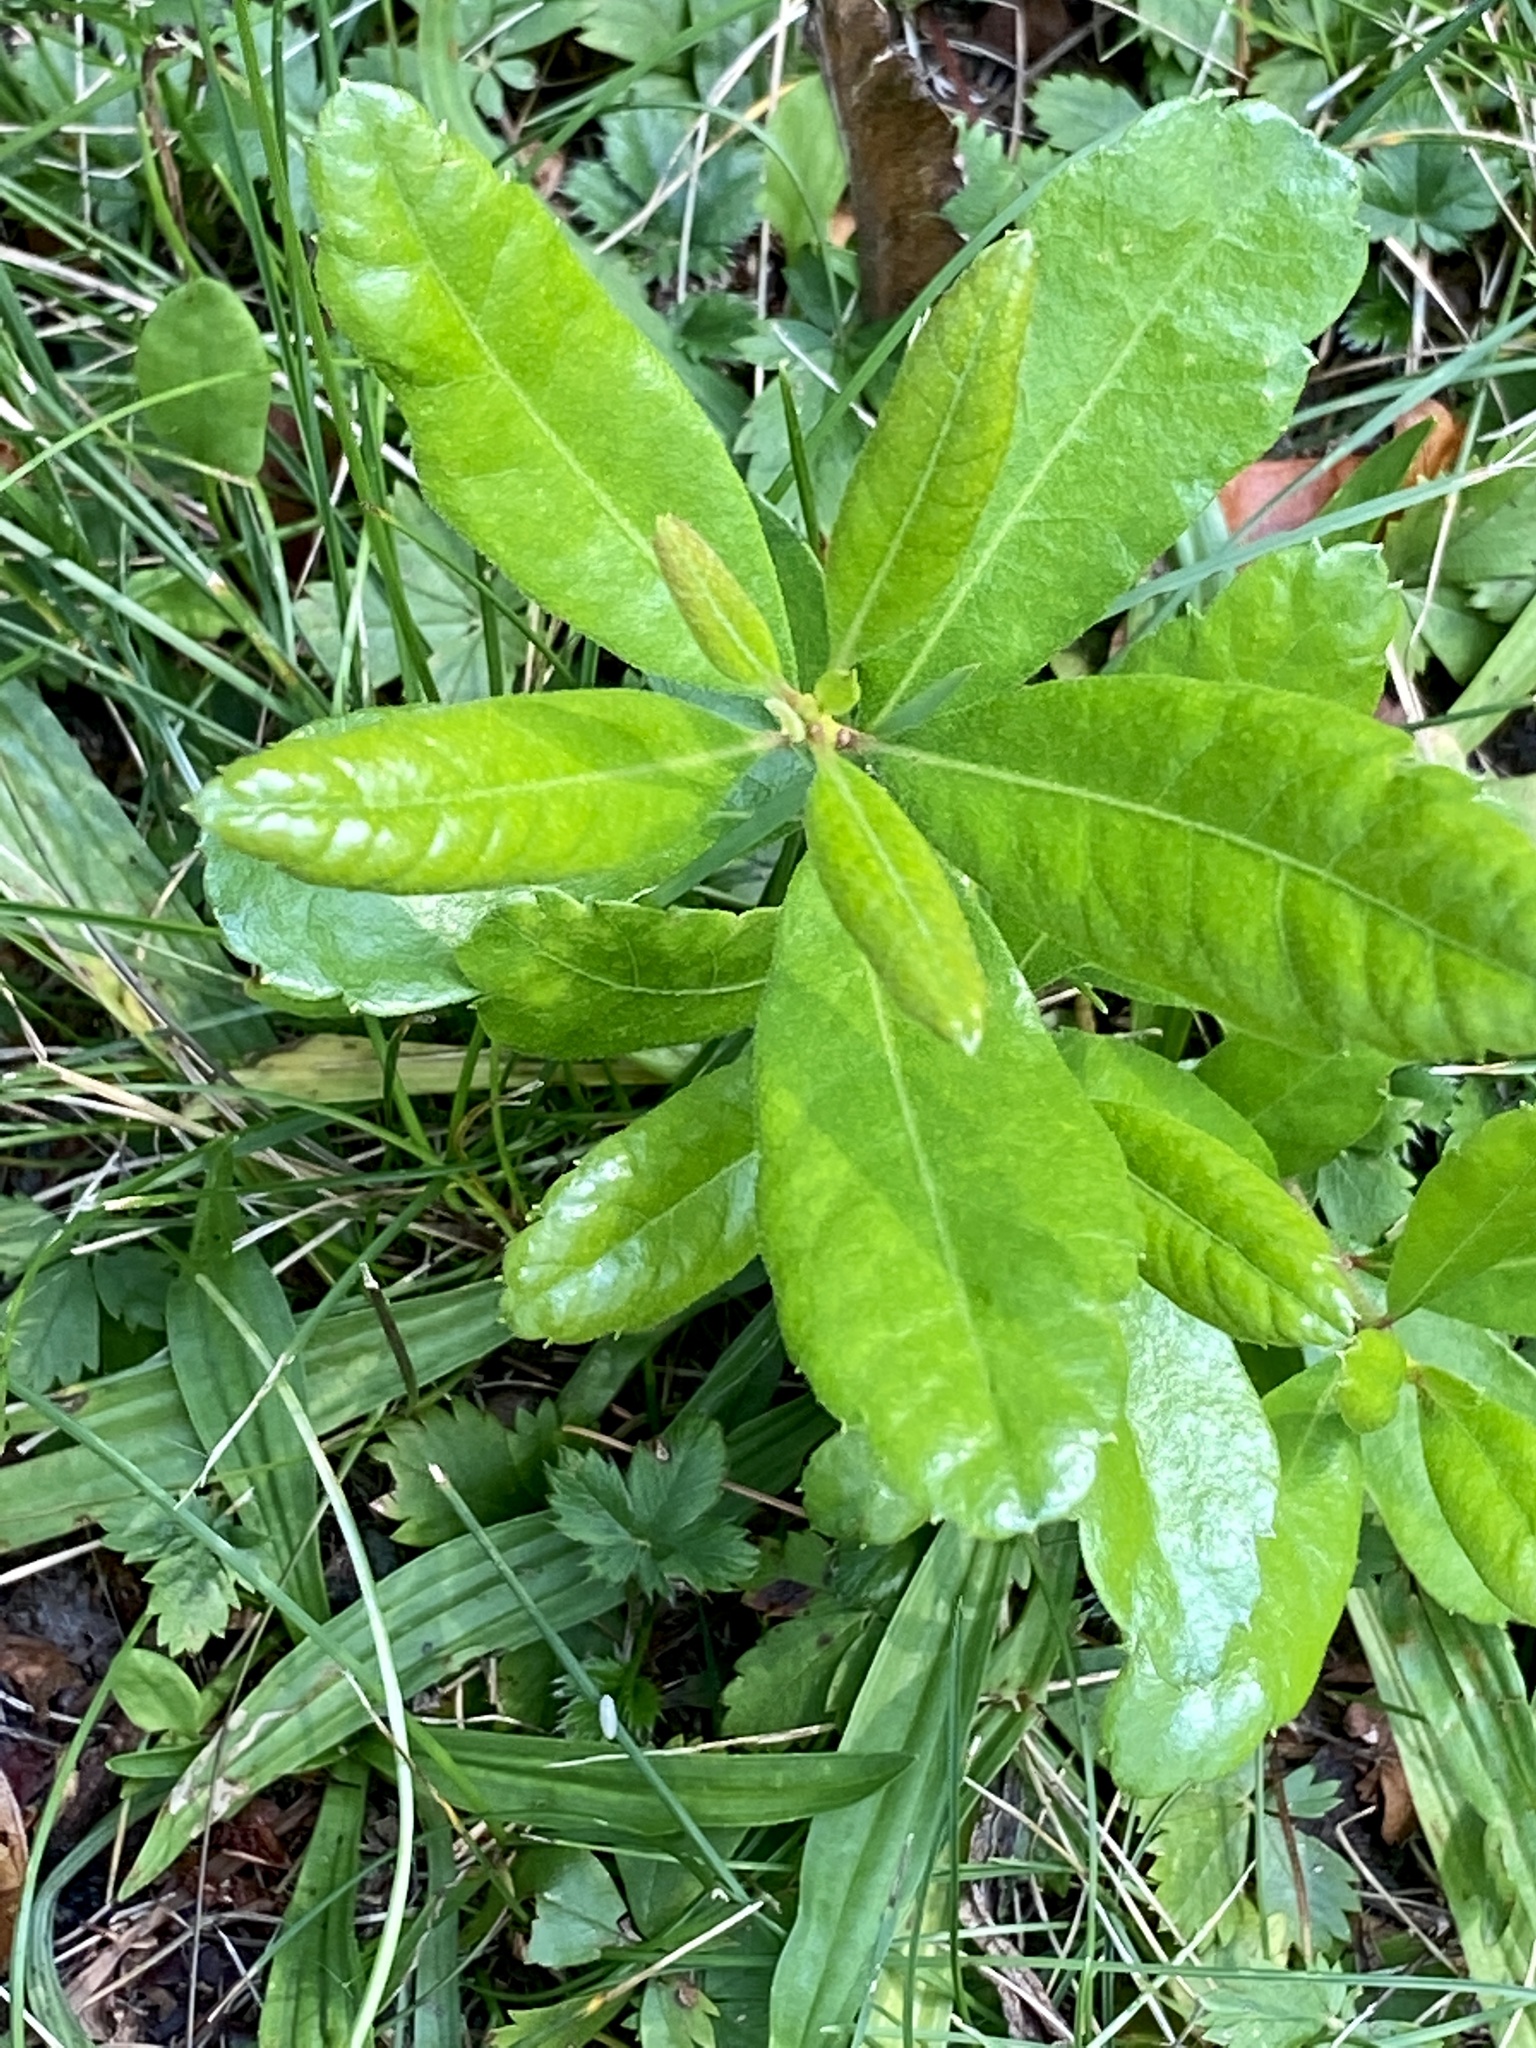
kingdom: Plantae
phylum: Tracheophyta
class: Magnoliopsida
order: Fagales
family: Myricaceae
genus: Morella
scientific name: Morella pensylvanica
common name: Northern bayberry
